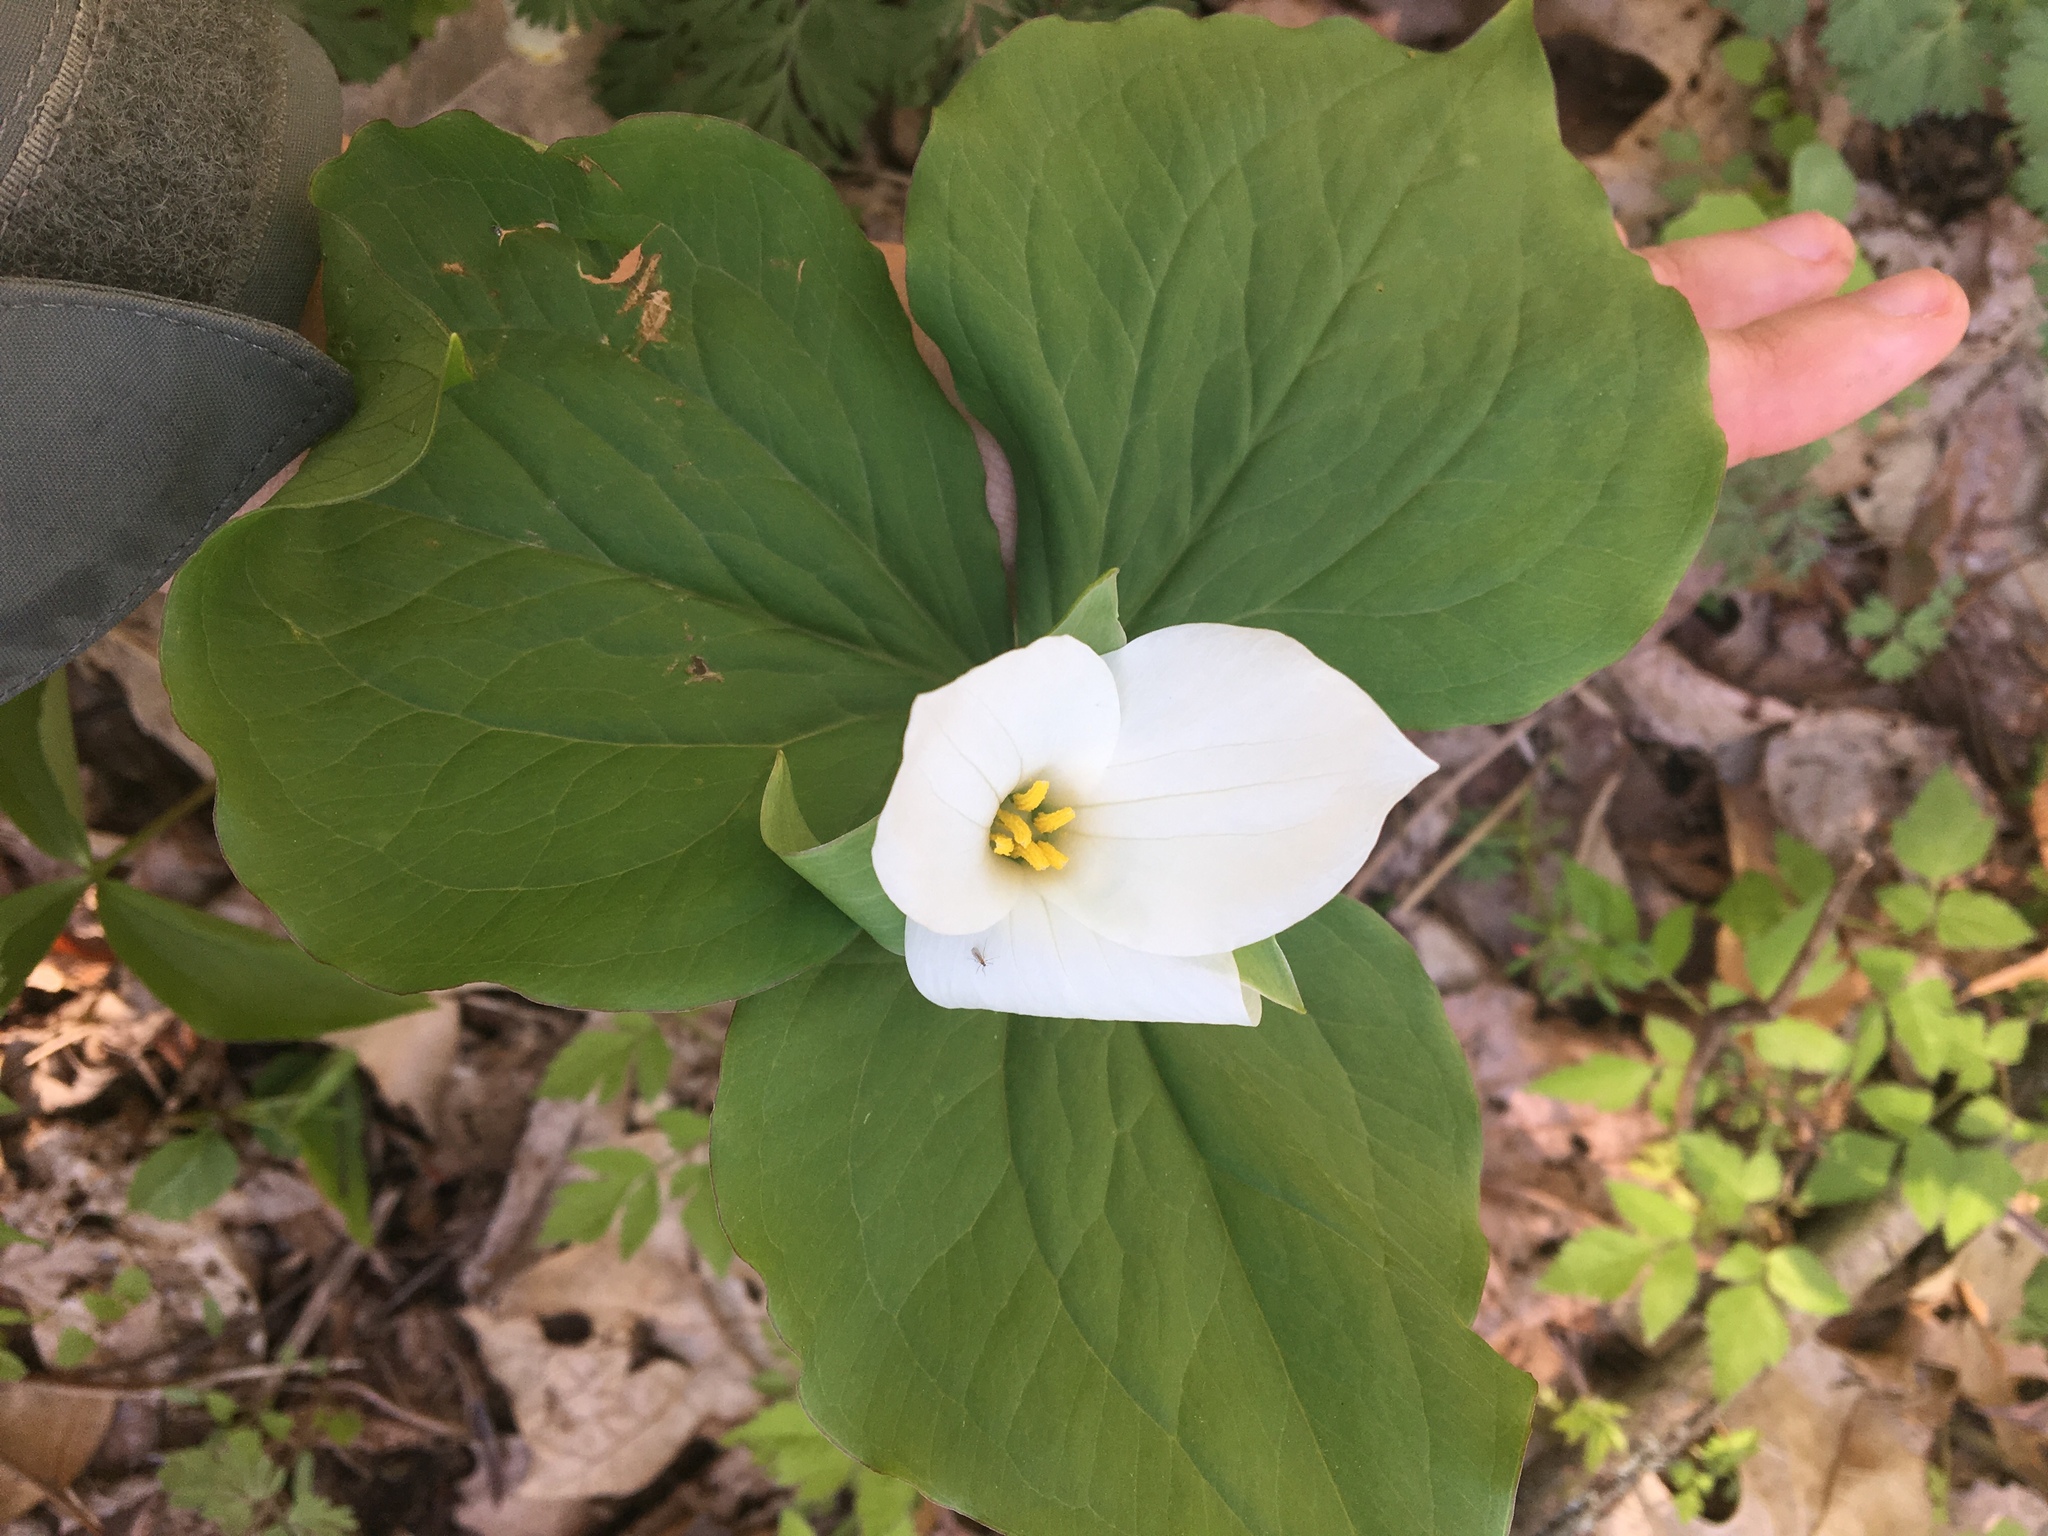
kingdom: Plantae
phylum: Tracheophyta
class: Liliopsida
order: Liliales
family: Melanthiaceae
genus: Trillium
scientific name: Trillium grandiflorum
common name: Great white trillium
